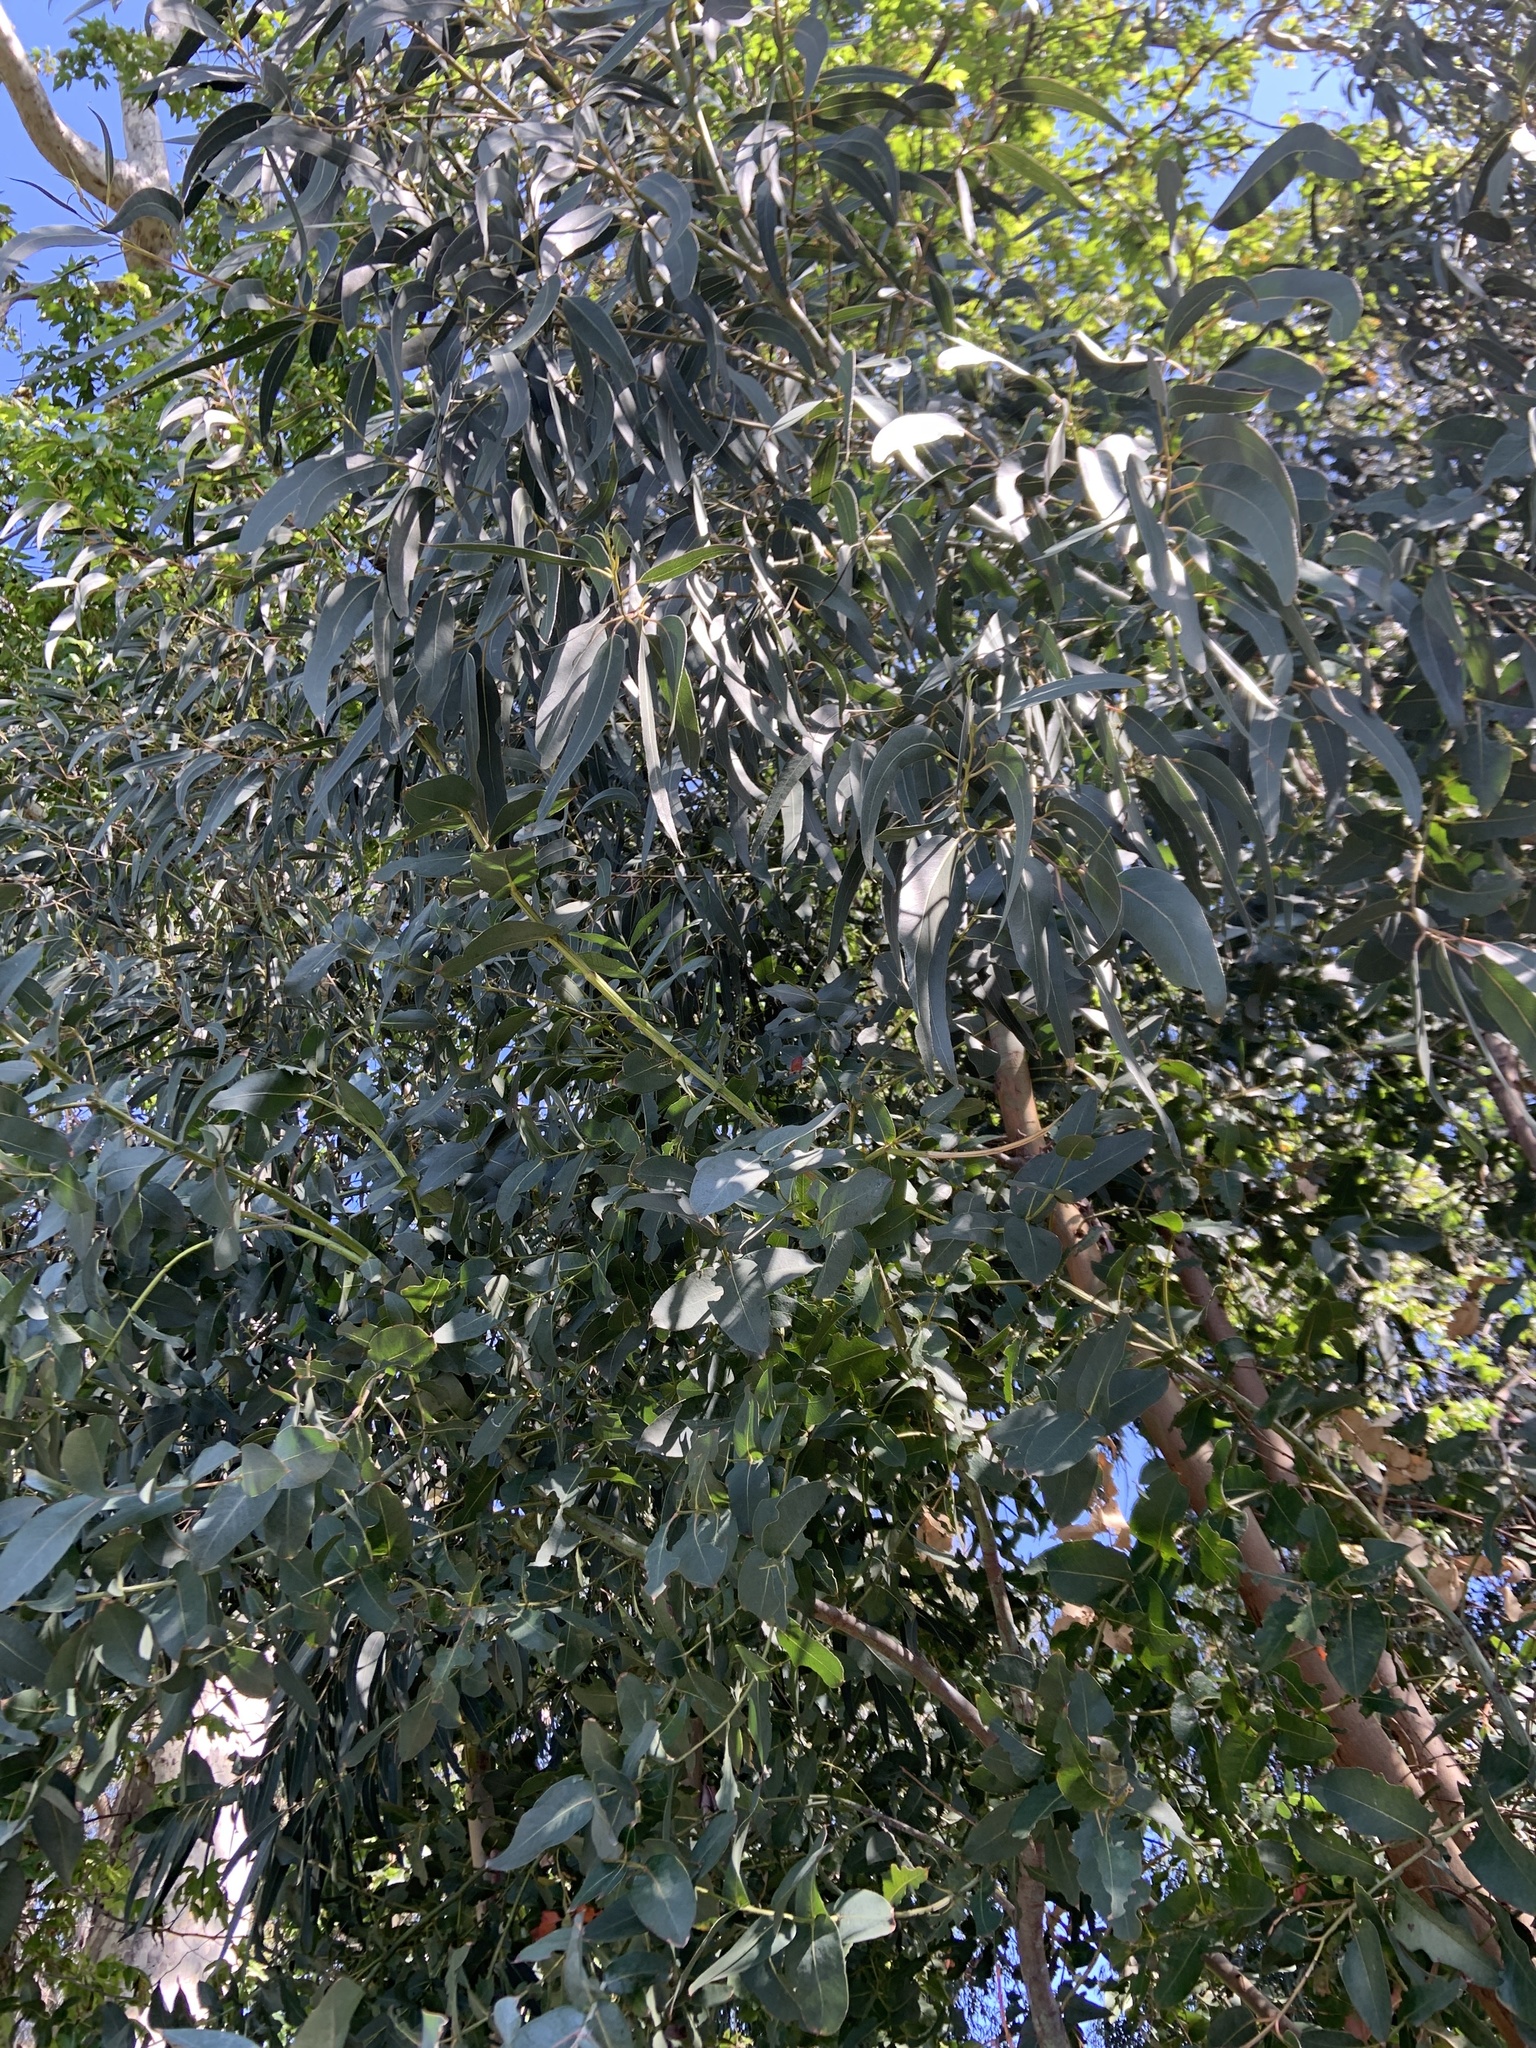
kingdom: Plantae
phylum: Tracheophyta
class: Magnoliopsida
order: Myrtales
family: Myrtaceae
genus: Eucalyptus
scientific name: Eucalyptus globulus
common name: Southern blue-gum
